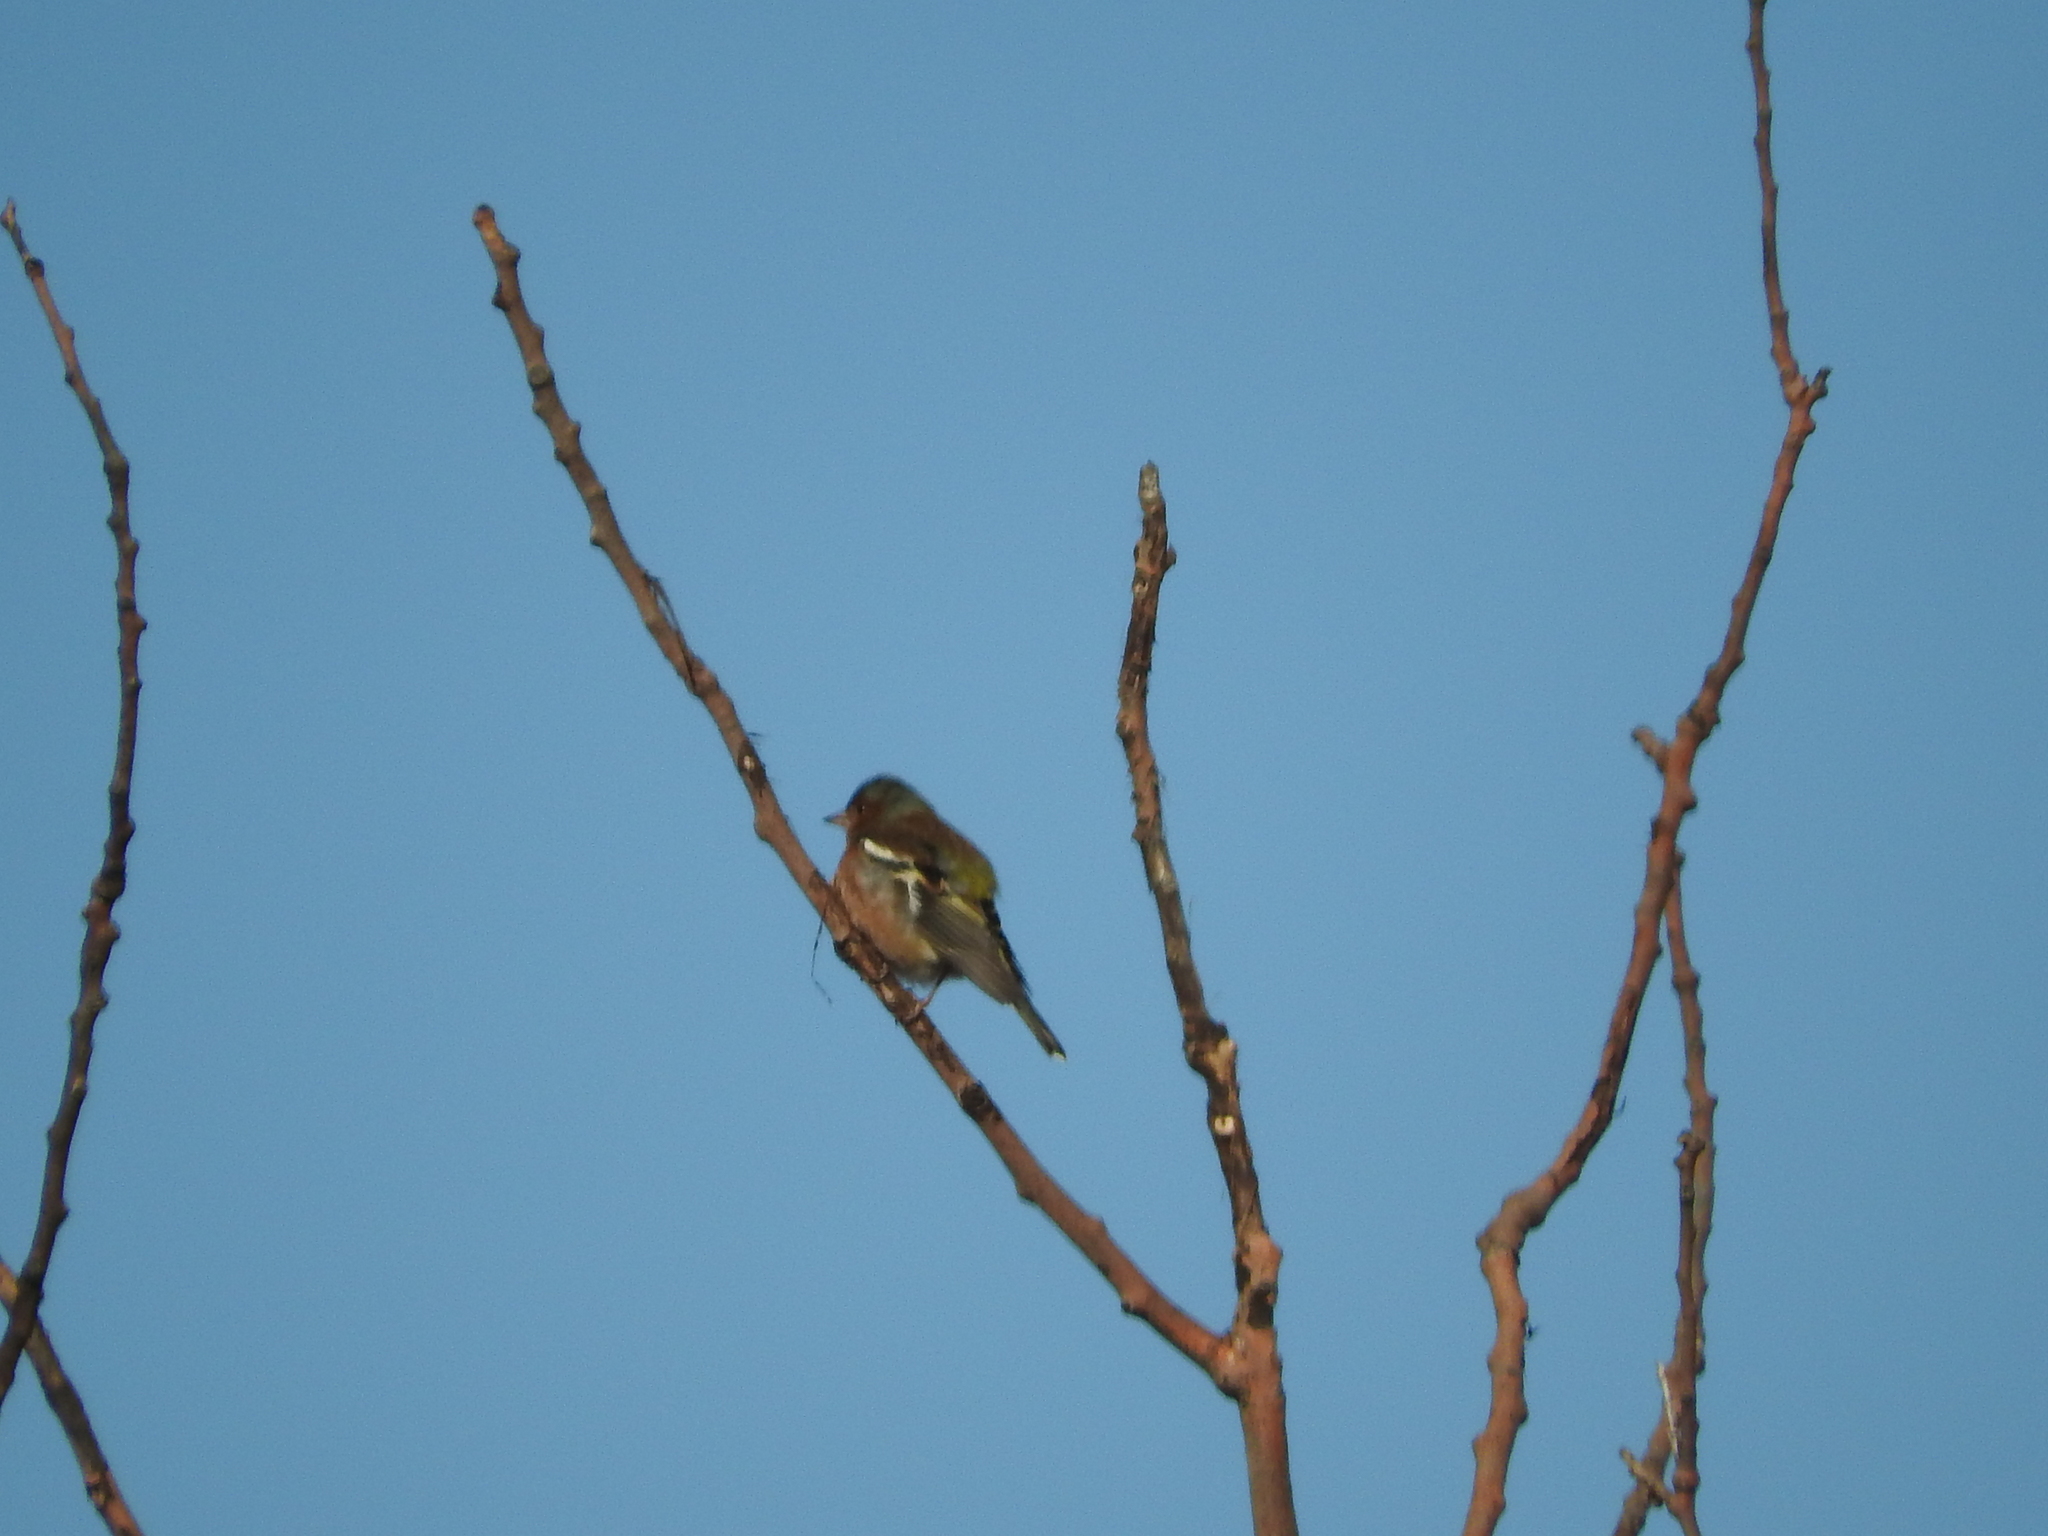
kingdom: Animalia
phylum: Chordata
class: Aves
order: Passeriformes
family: Fringillidae
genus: Fringilla
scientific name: Fringilla coelebs
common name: Common chaffinch
